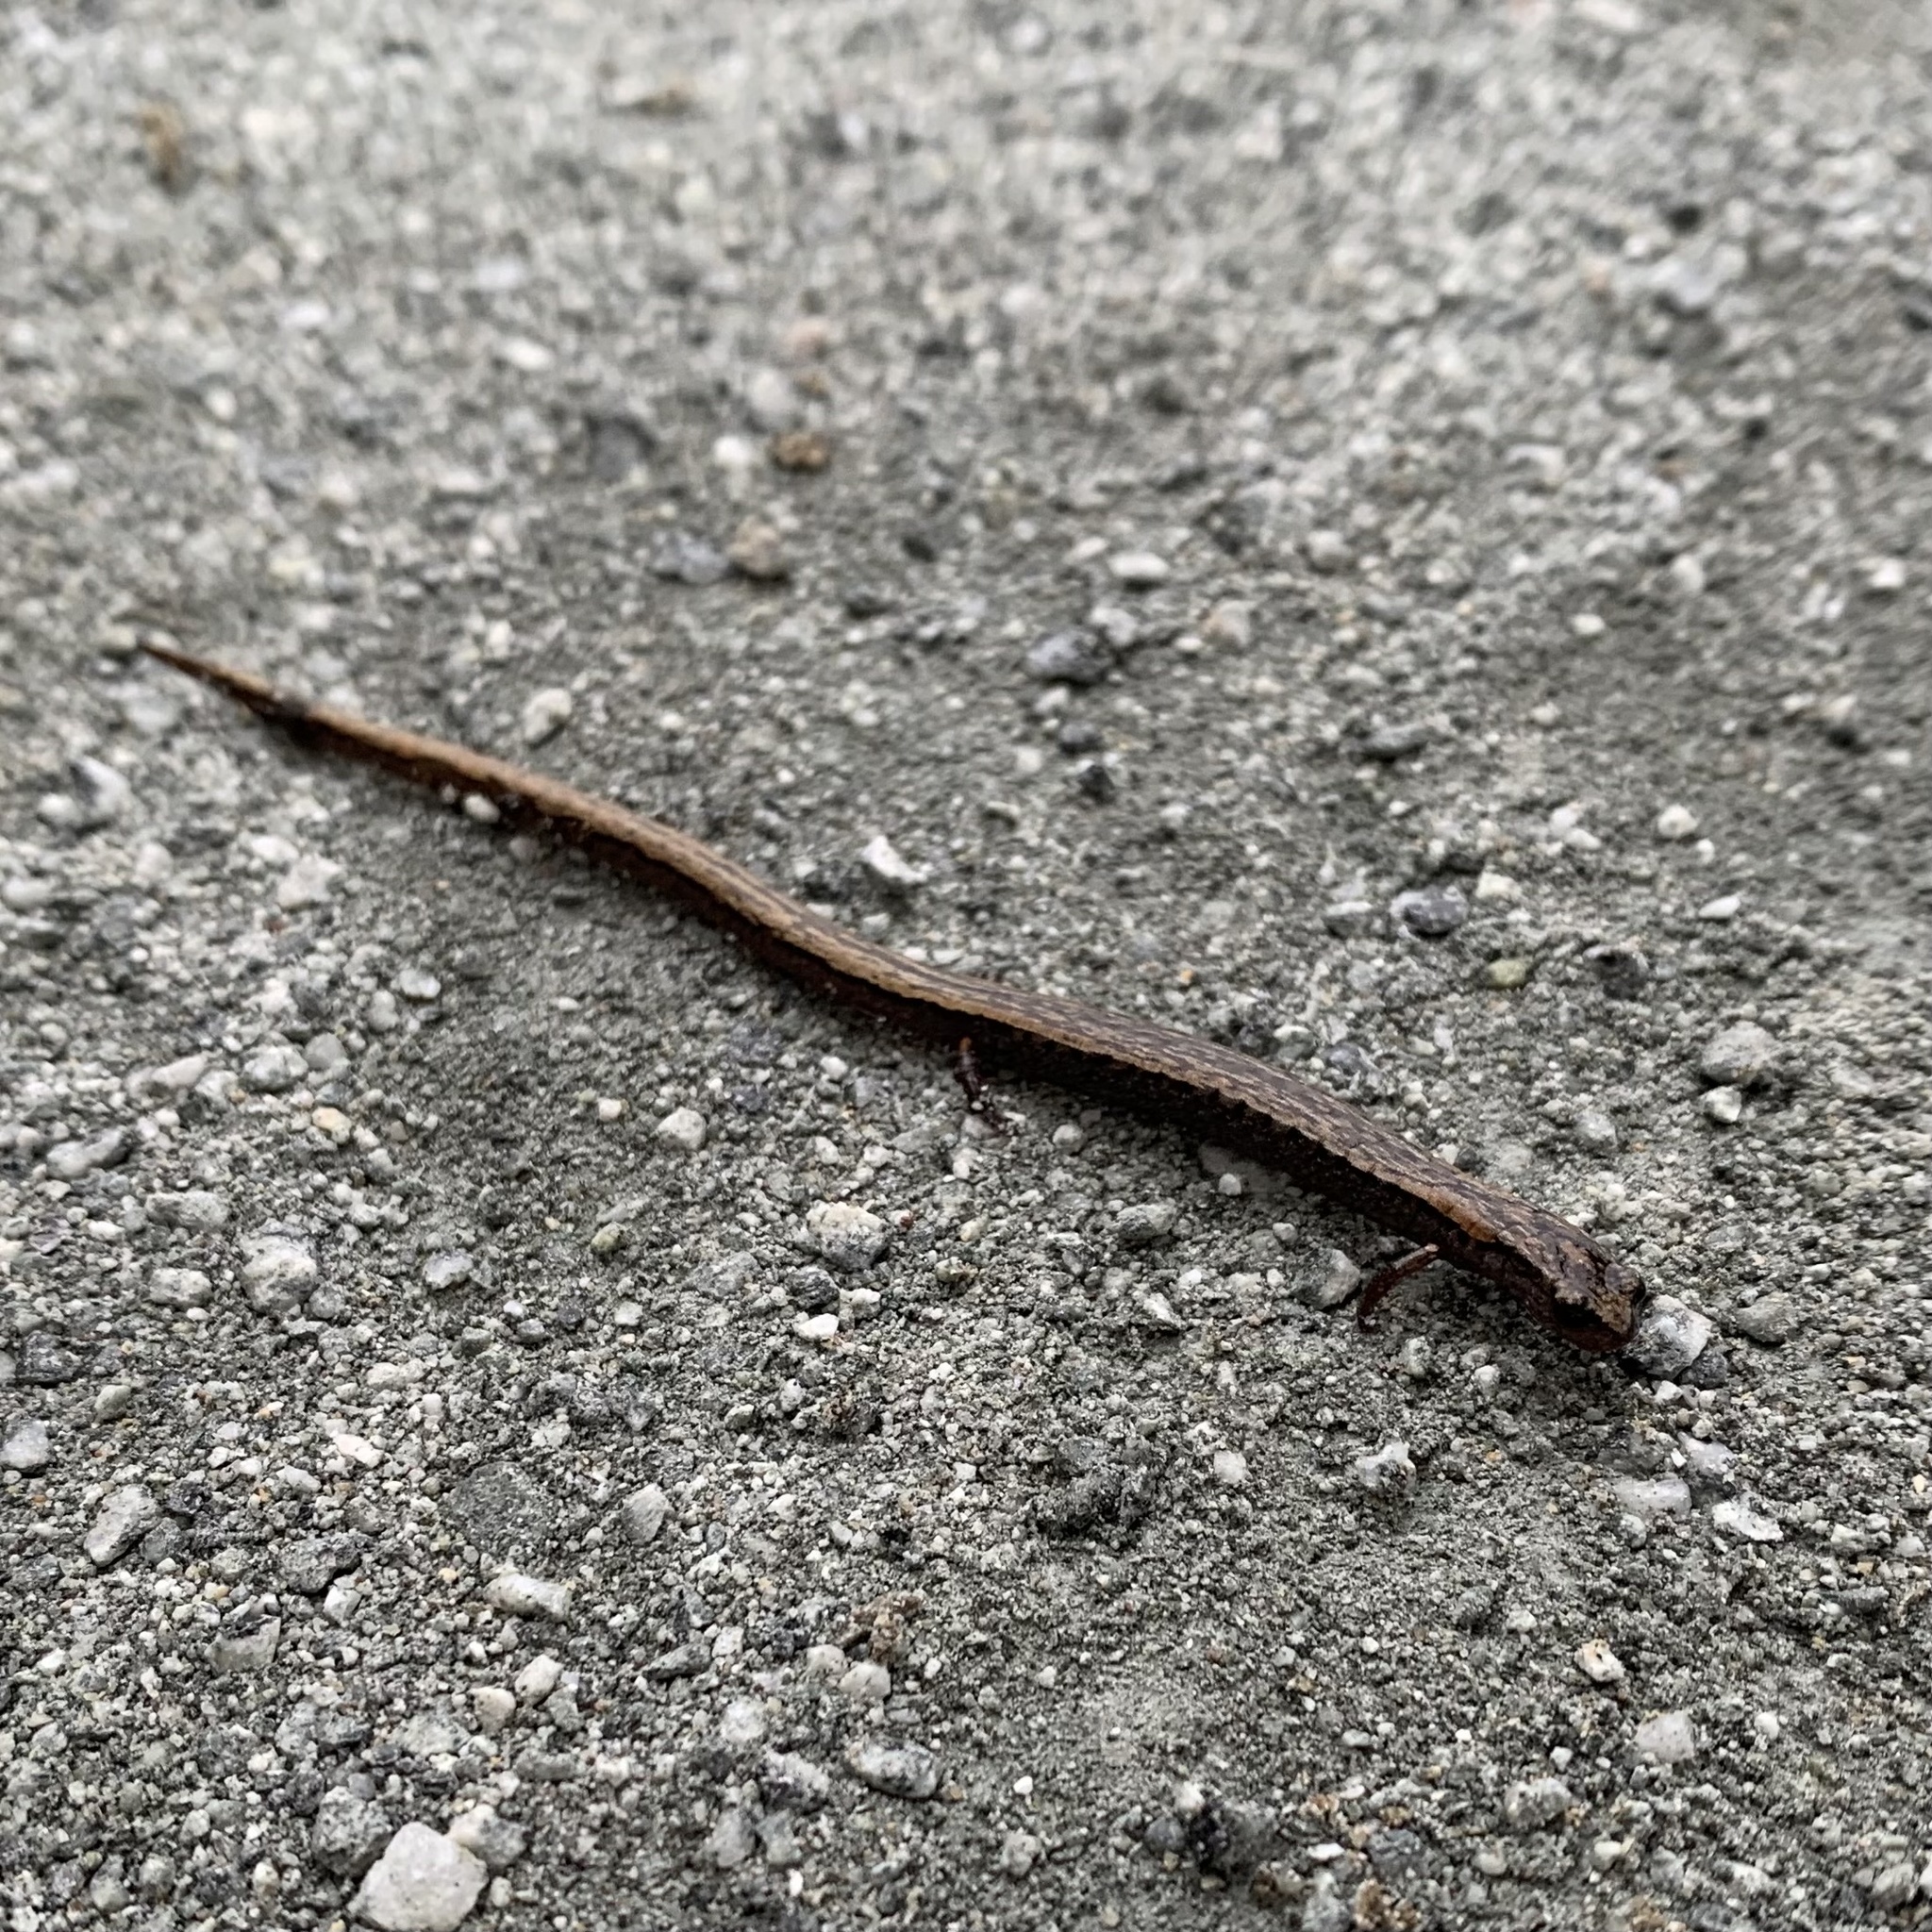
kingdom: Animalia
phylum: Chordata
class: Amphibia
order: Caudata
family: Plethodontidae
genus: Batrachoseps
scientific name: Batrachoseps attenuatus
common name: California slender salamander
